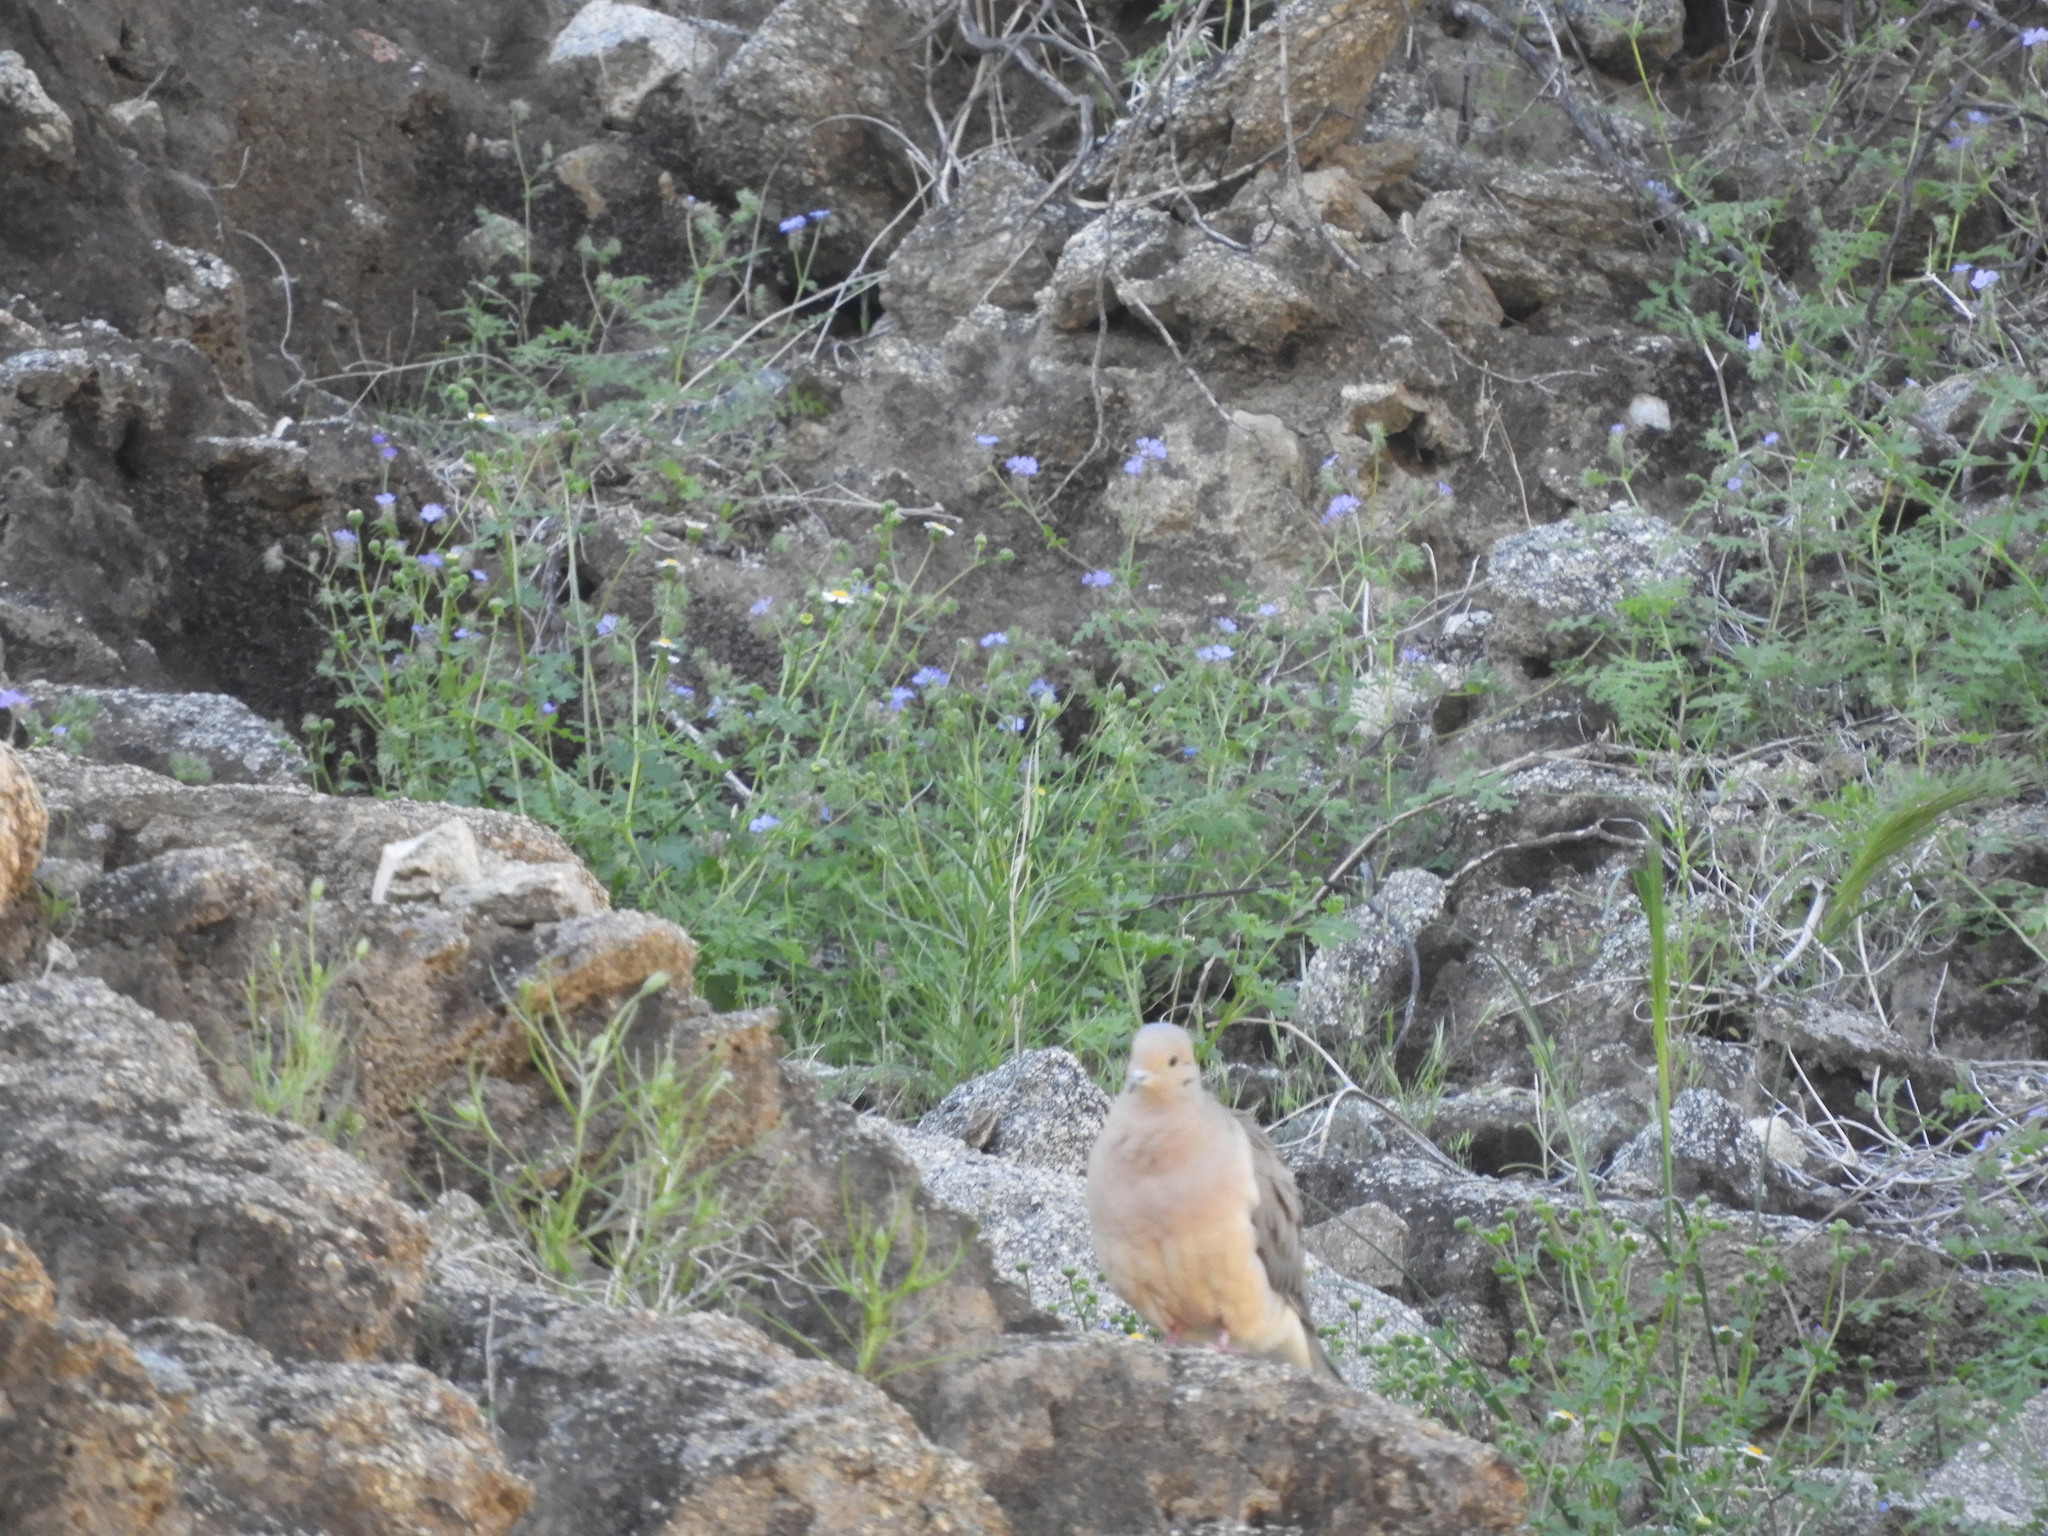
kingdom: Animalia
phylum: Chordata
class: Aves
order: Columbiformes
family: Columbidae
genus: Zenaida
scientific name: Zenaida macroura
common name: Mourning dove
